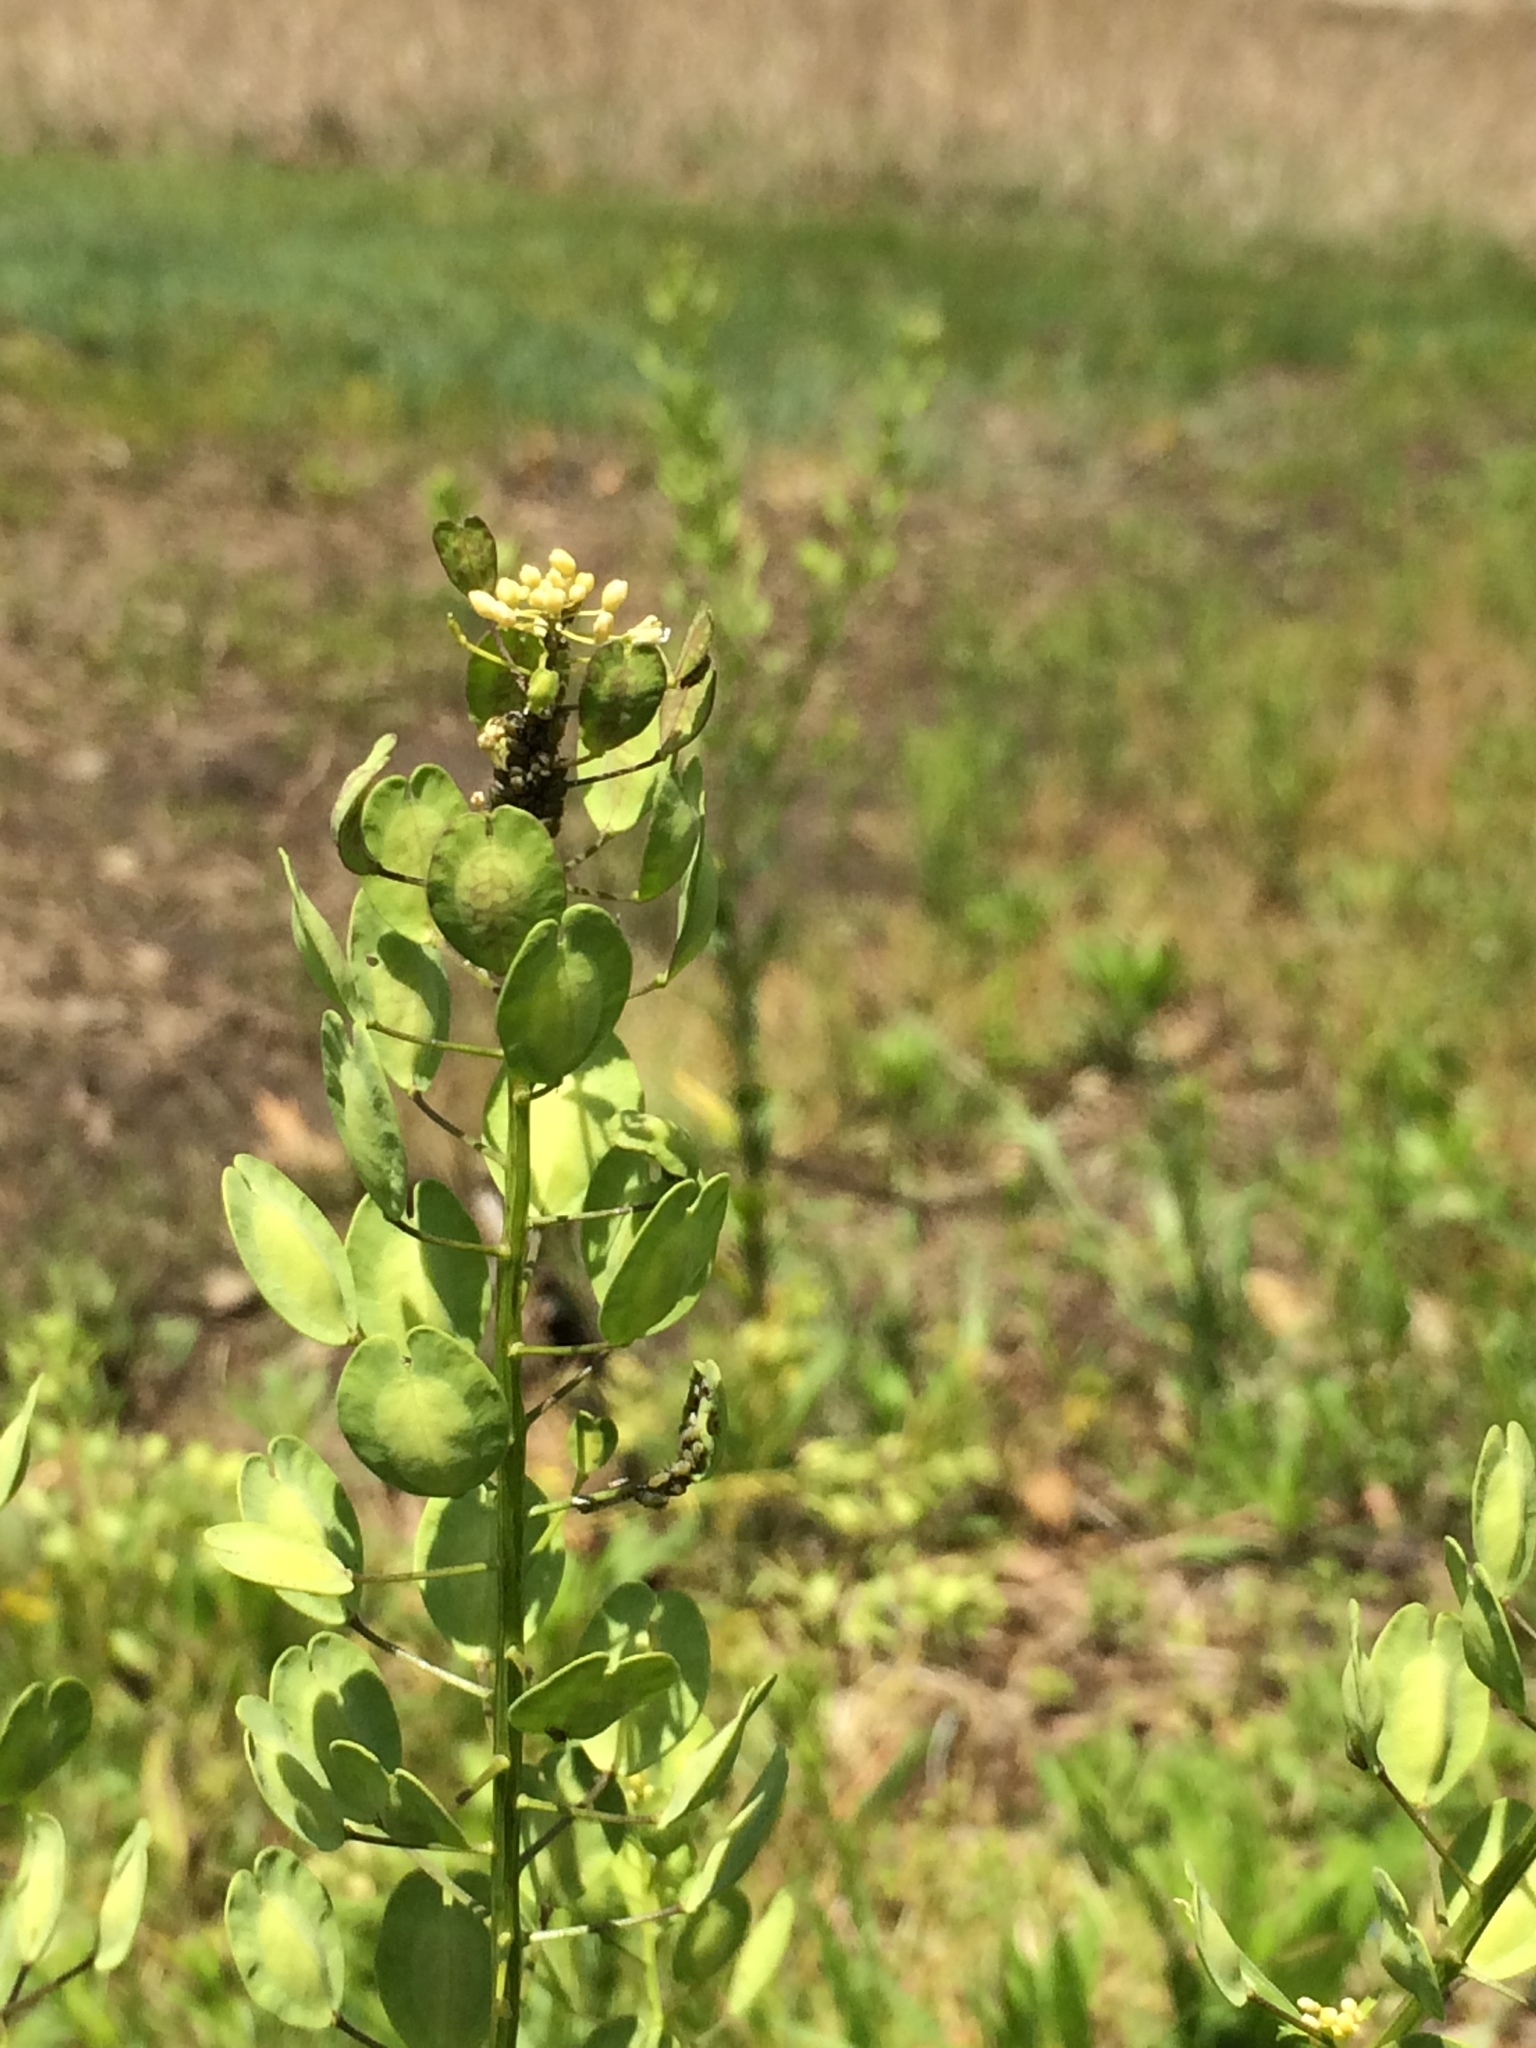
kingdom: Plantae
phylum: Tracheophyta
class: Magnoliopsida
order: Brassicales
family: Brassicaceae
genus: Thlaspi
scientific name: Thlaspi arvense
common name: Field pennycress
